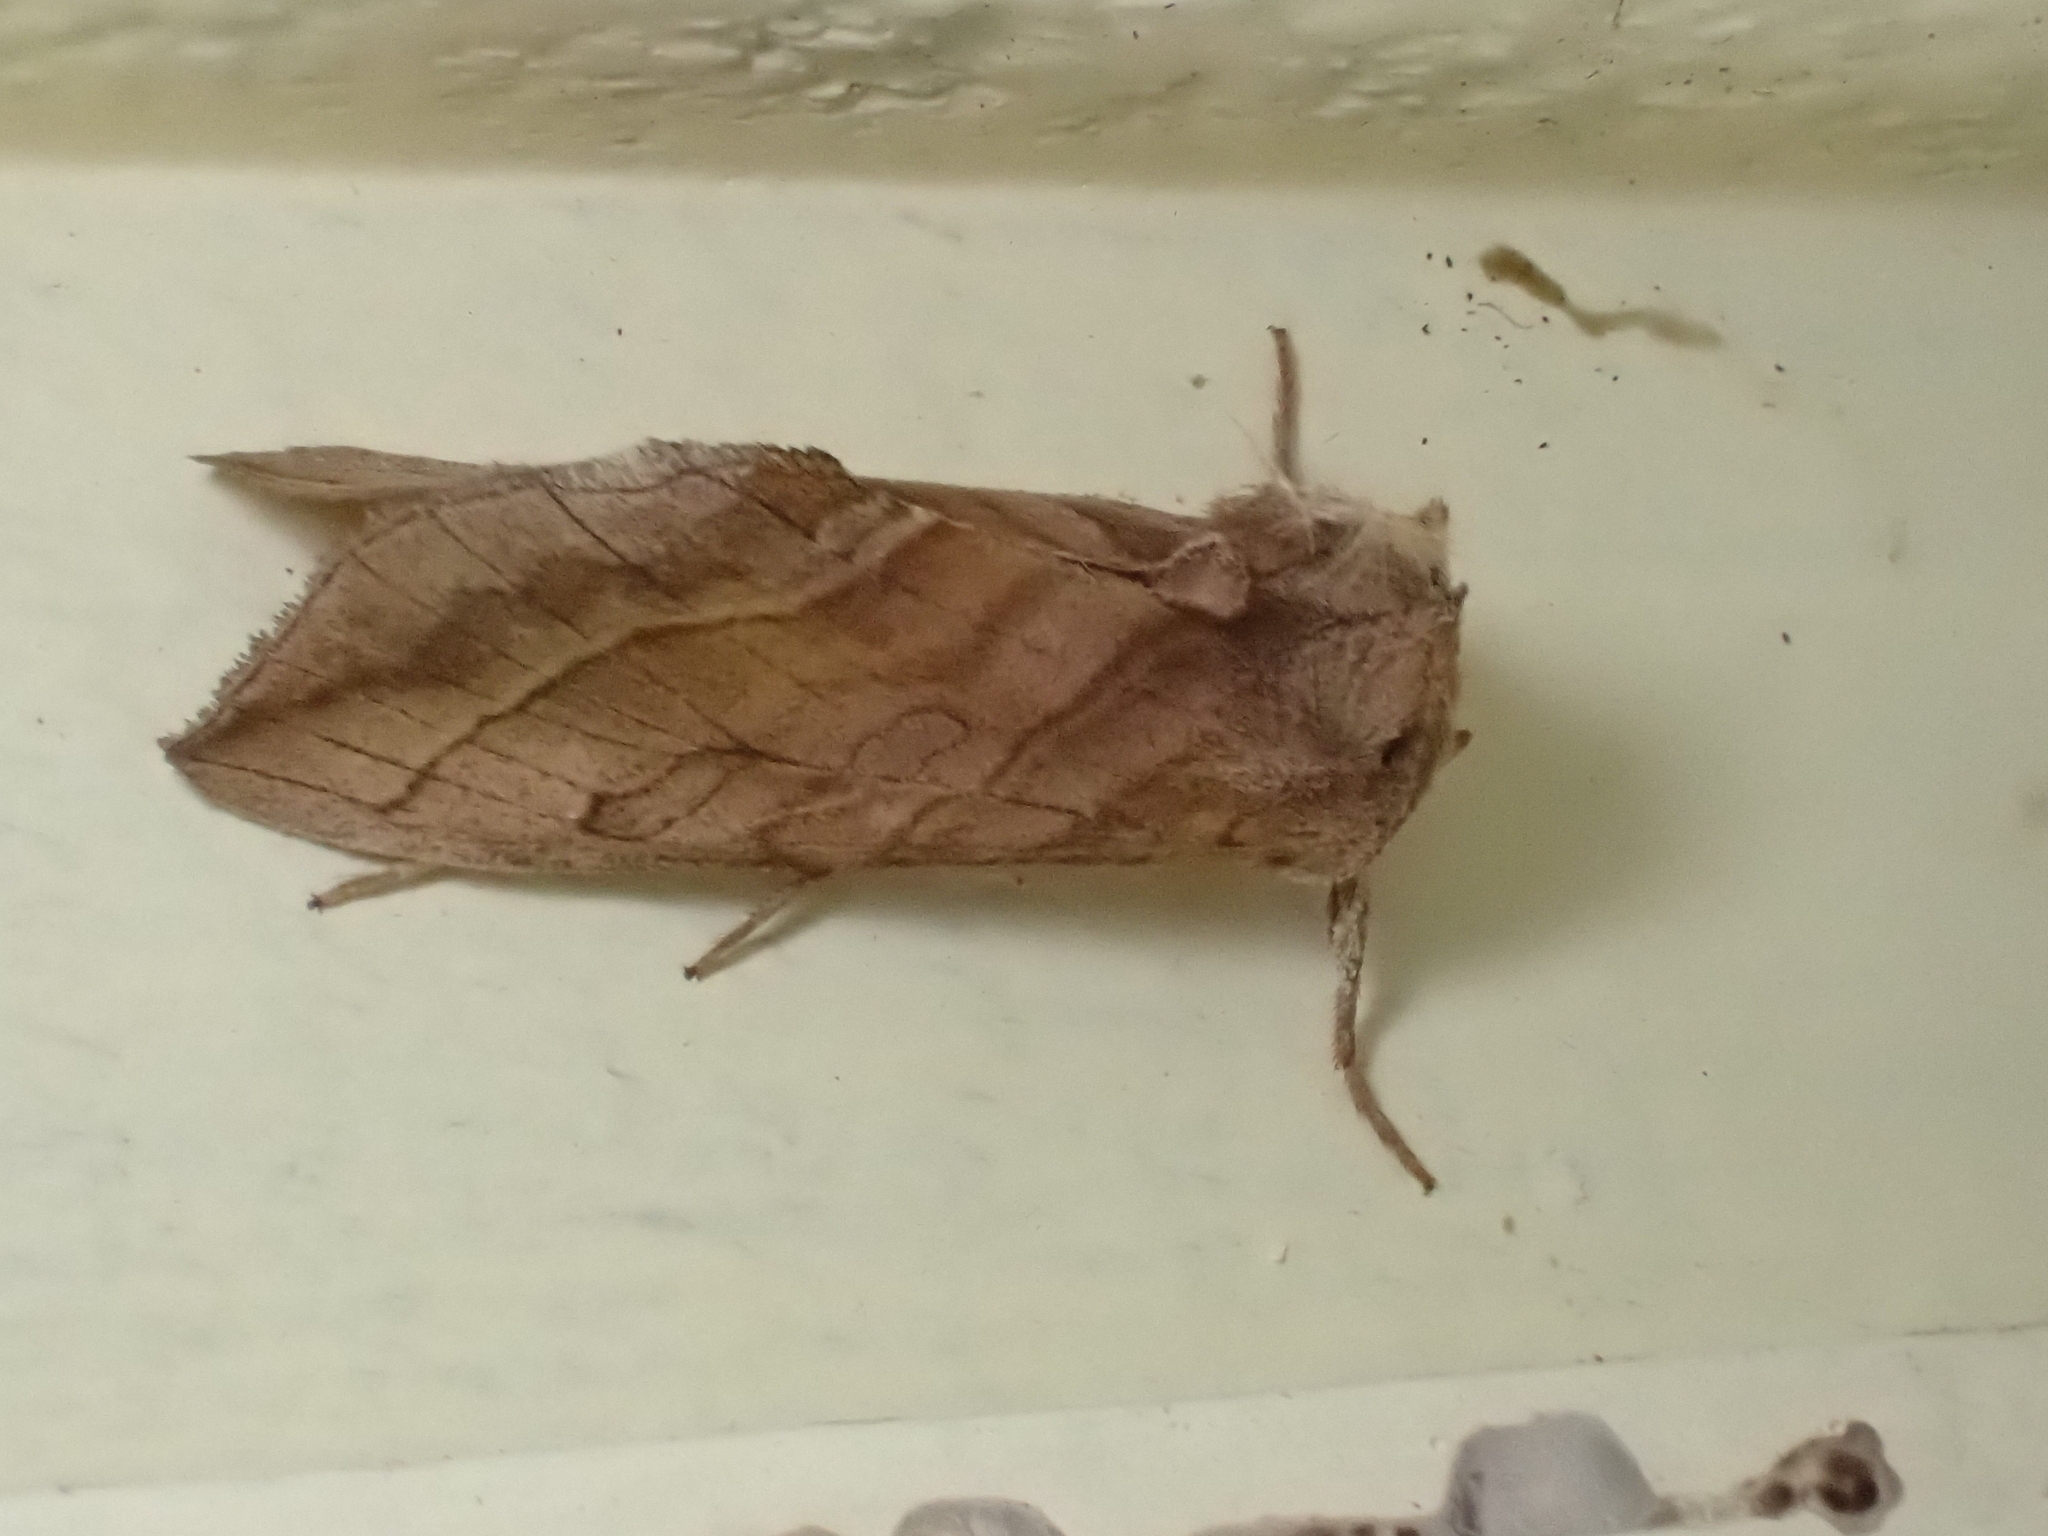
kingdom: Animalia
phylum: Arthropoda
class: Insecta
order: Lepidoptera
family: Noctuidae
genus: Diachrysia
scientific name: Diachrysia aereoides
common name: Dark-spotted looper moth
